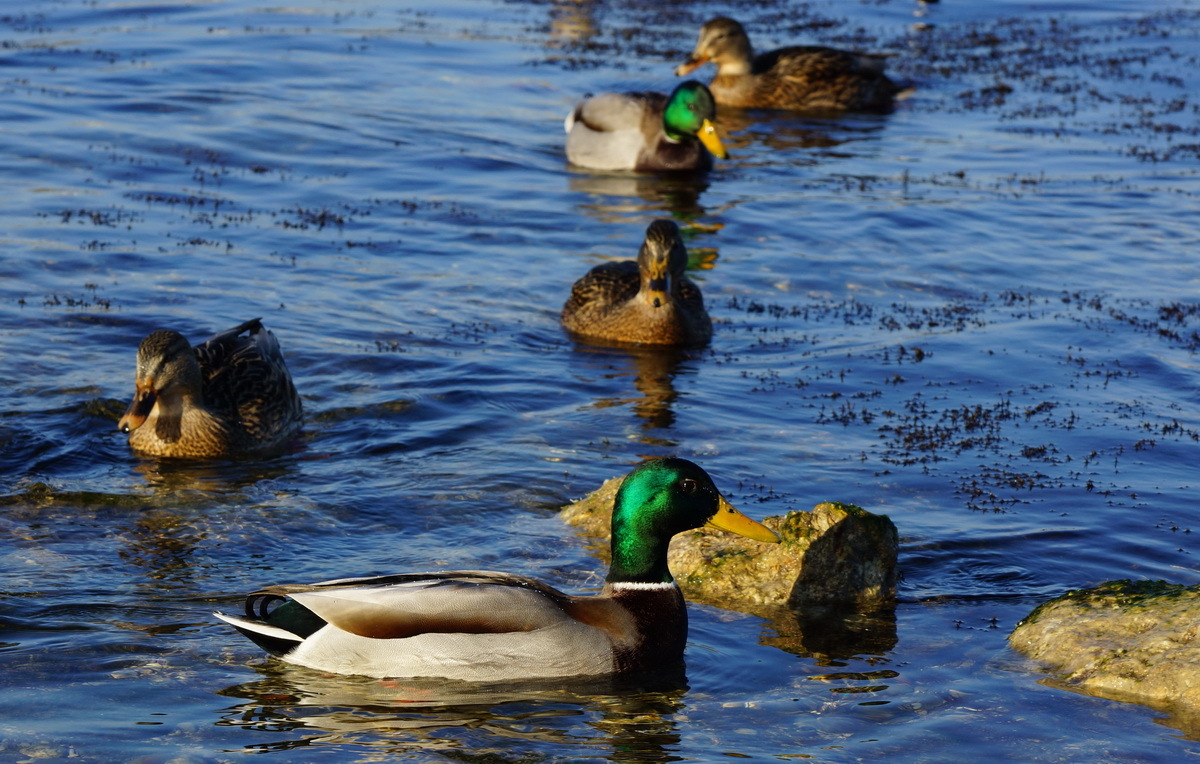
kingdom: Animalia
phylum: Chordata
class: Aves
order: Anseriformes
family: Anatidae
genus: Anas
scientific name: Anas platyrhynchos
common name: Mallard
